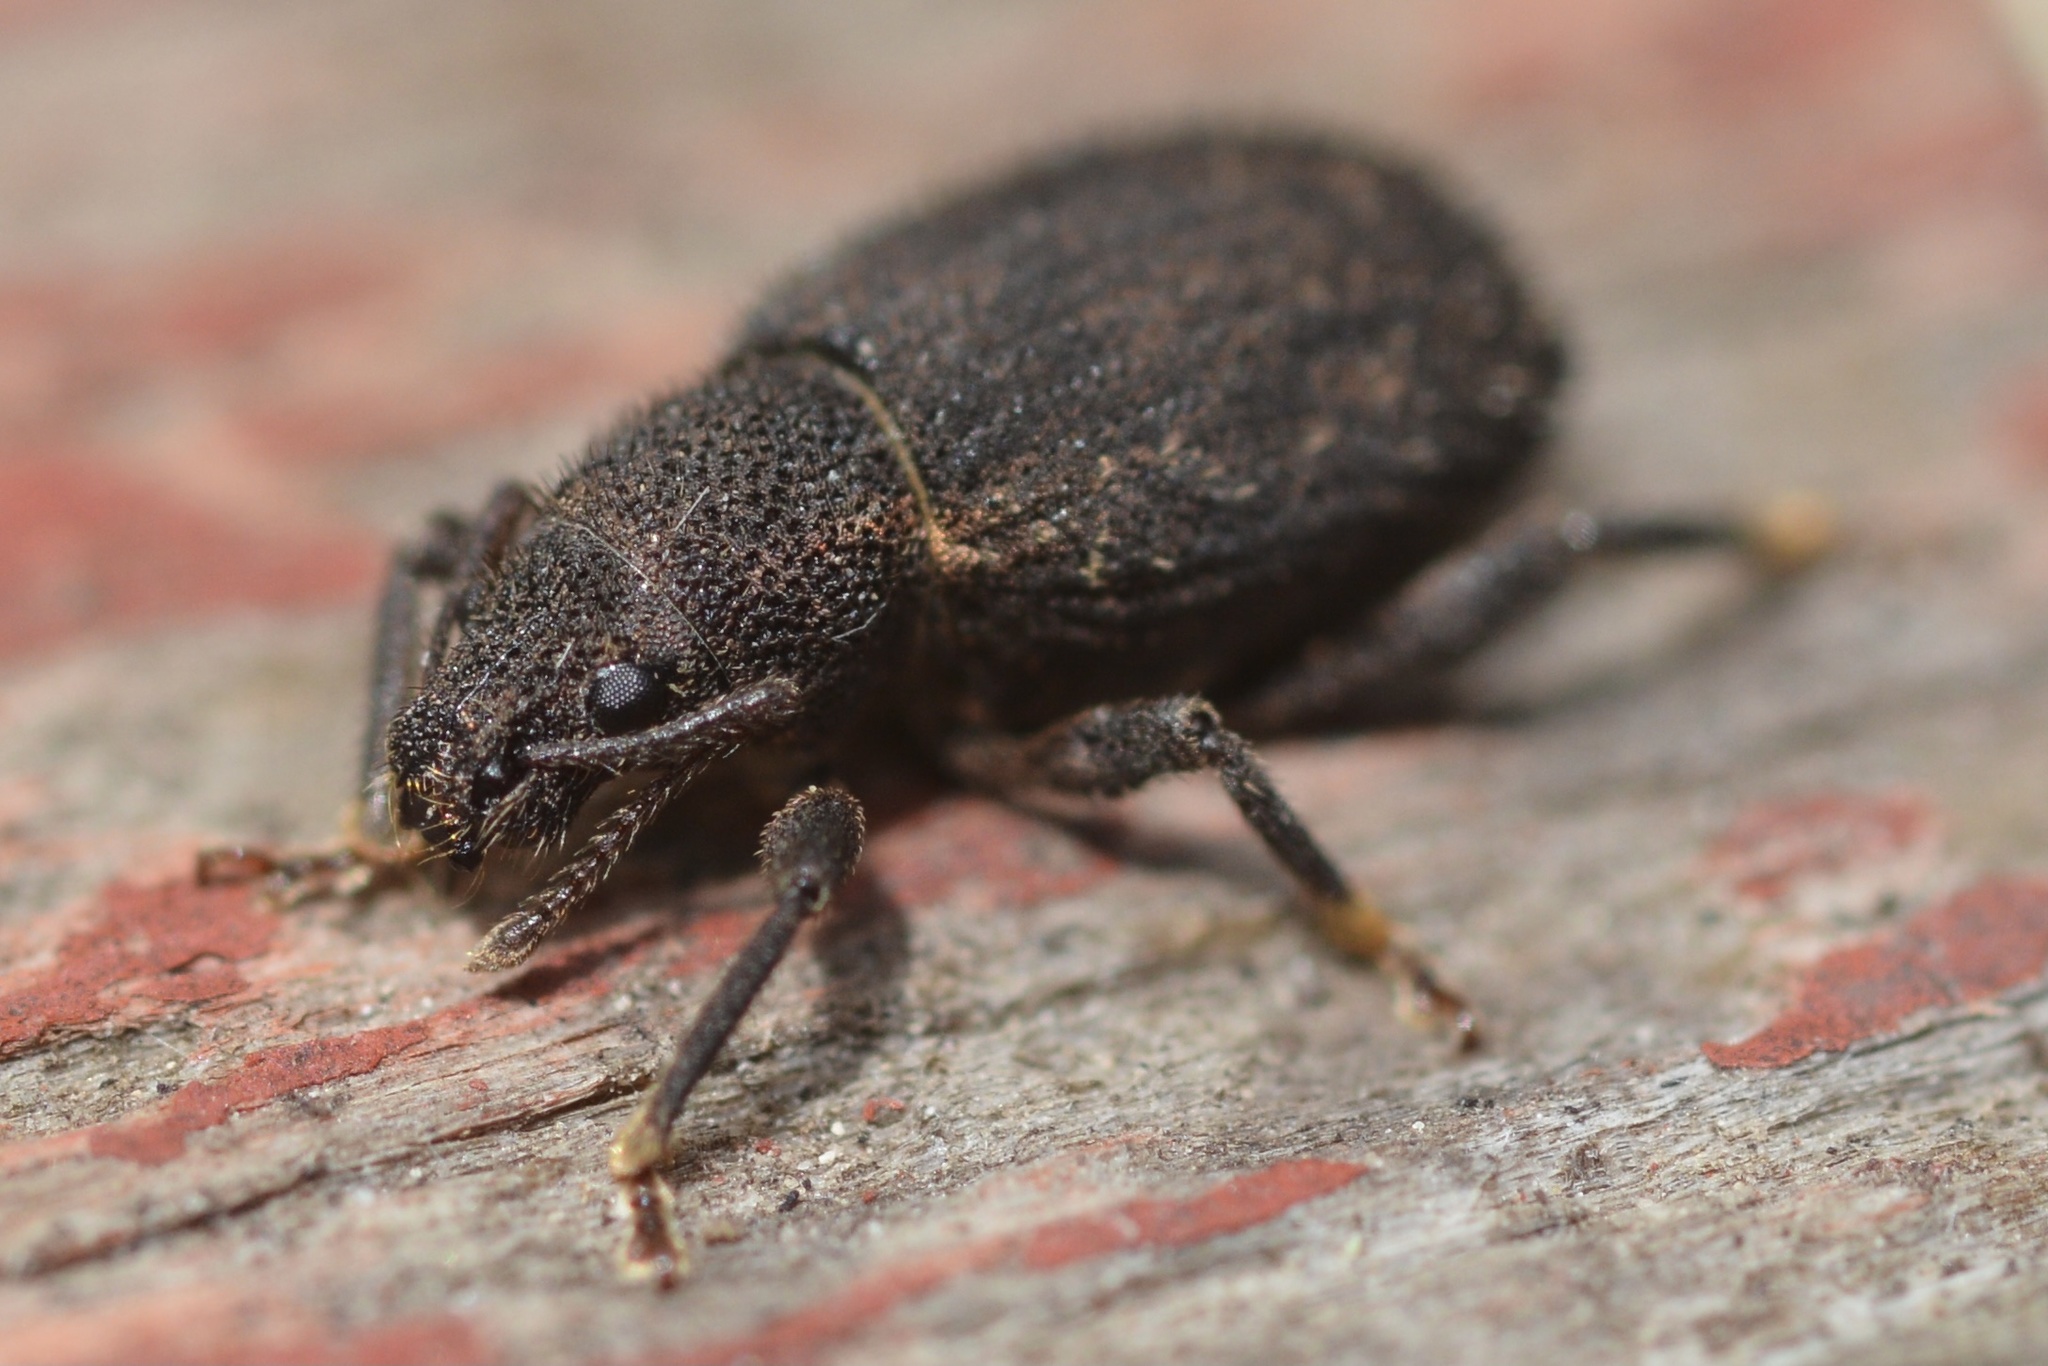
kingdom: Animalia
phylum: Arthropoda
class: Insecta
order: Coleoptera
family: Curculionidae
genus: Nemocestes
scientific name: Nemocestes incomptus
